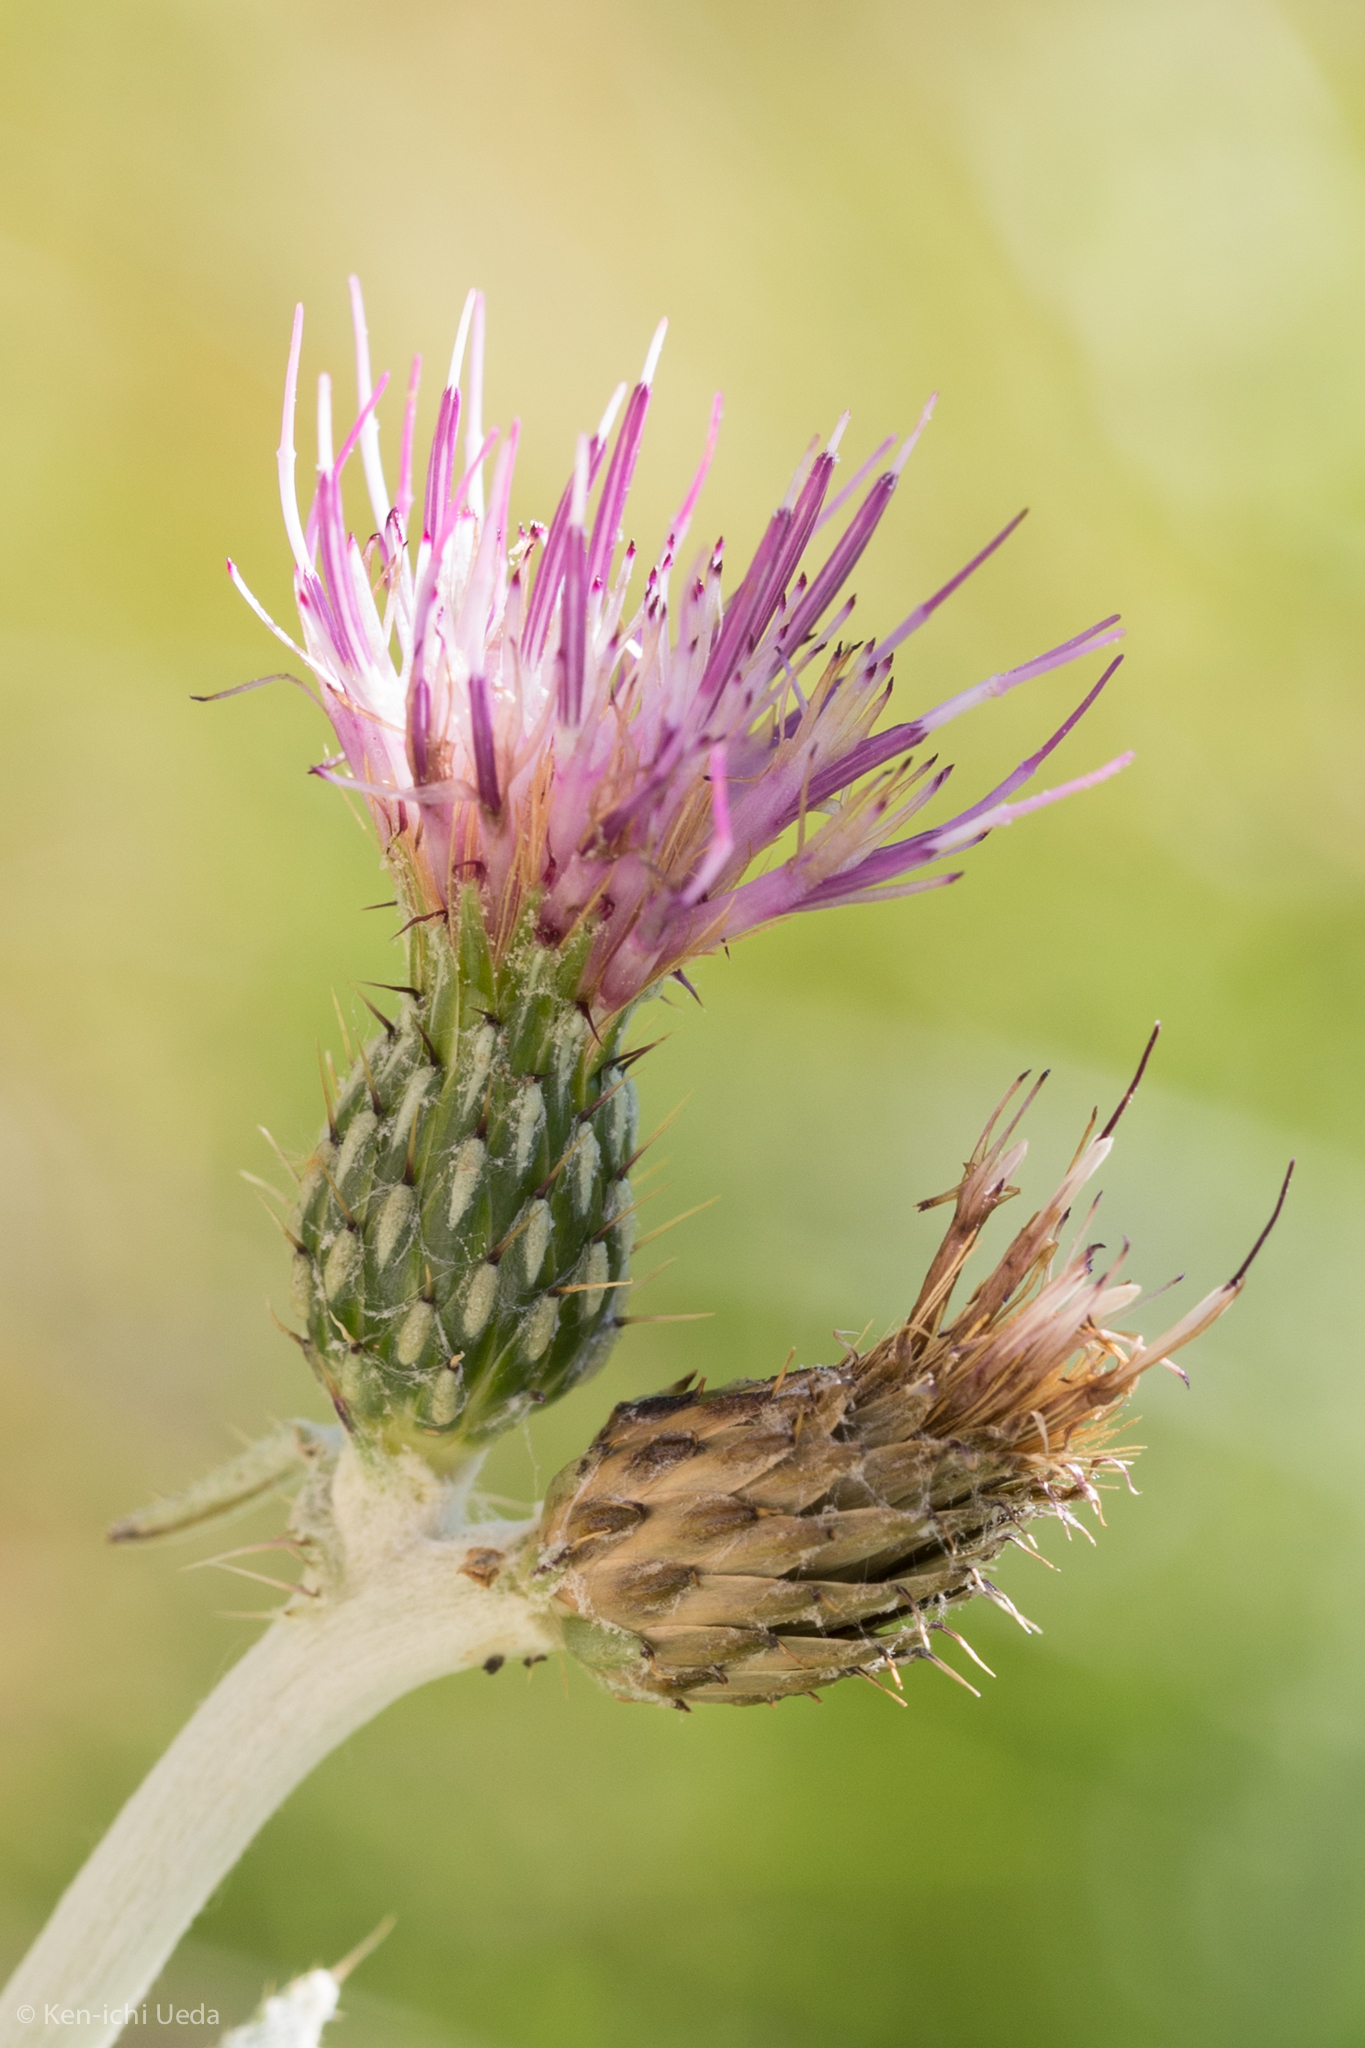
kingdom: Plantae
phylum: Tracheophyta
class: Magnoliopsida
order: Asterales
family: Asteraceae
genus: Cirsium
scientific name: Cirsium douglasii
